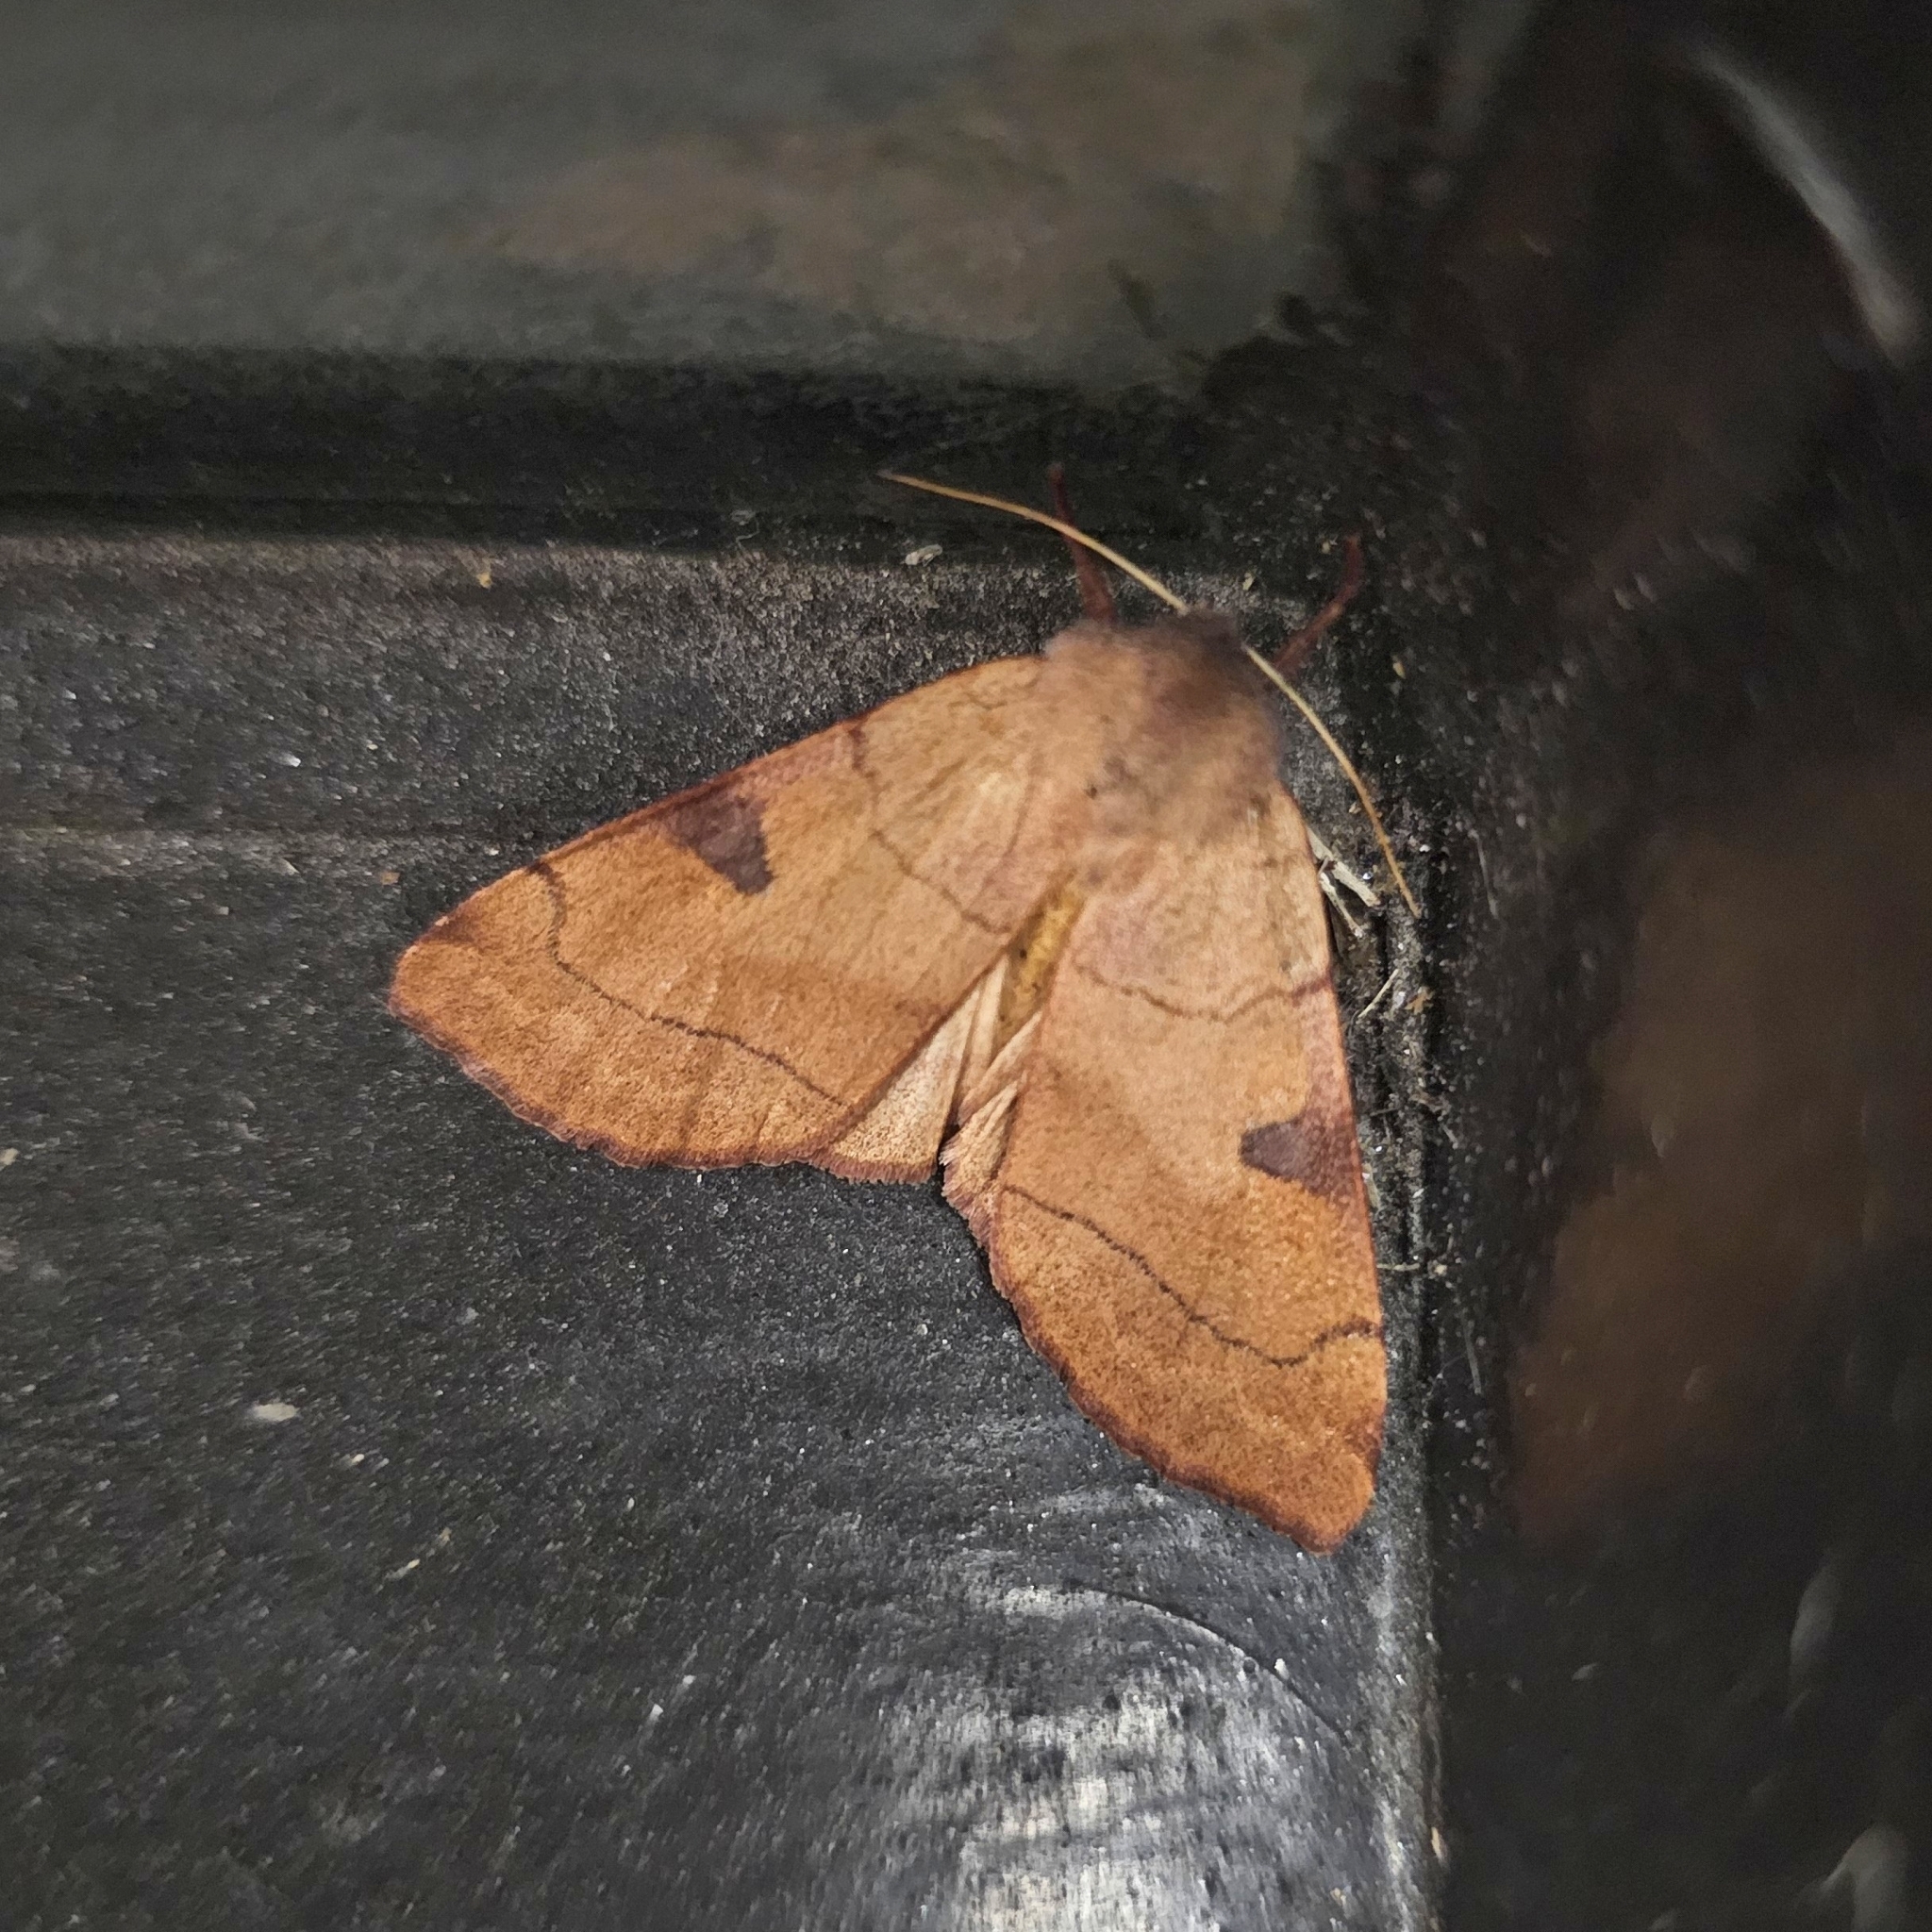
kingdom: Animalia
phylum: Arthropoda
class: Insecta
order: Lepidoptera
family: Noctuidae
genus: Choephora
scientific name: Choephora fungorum
